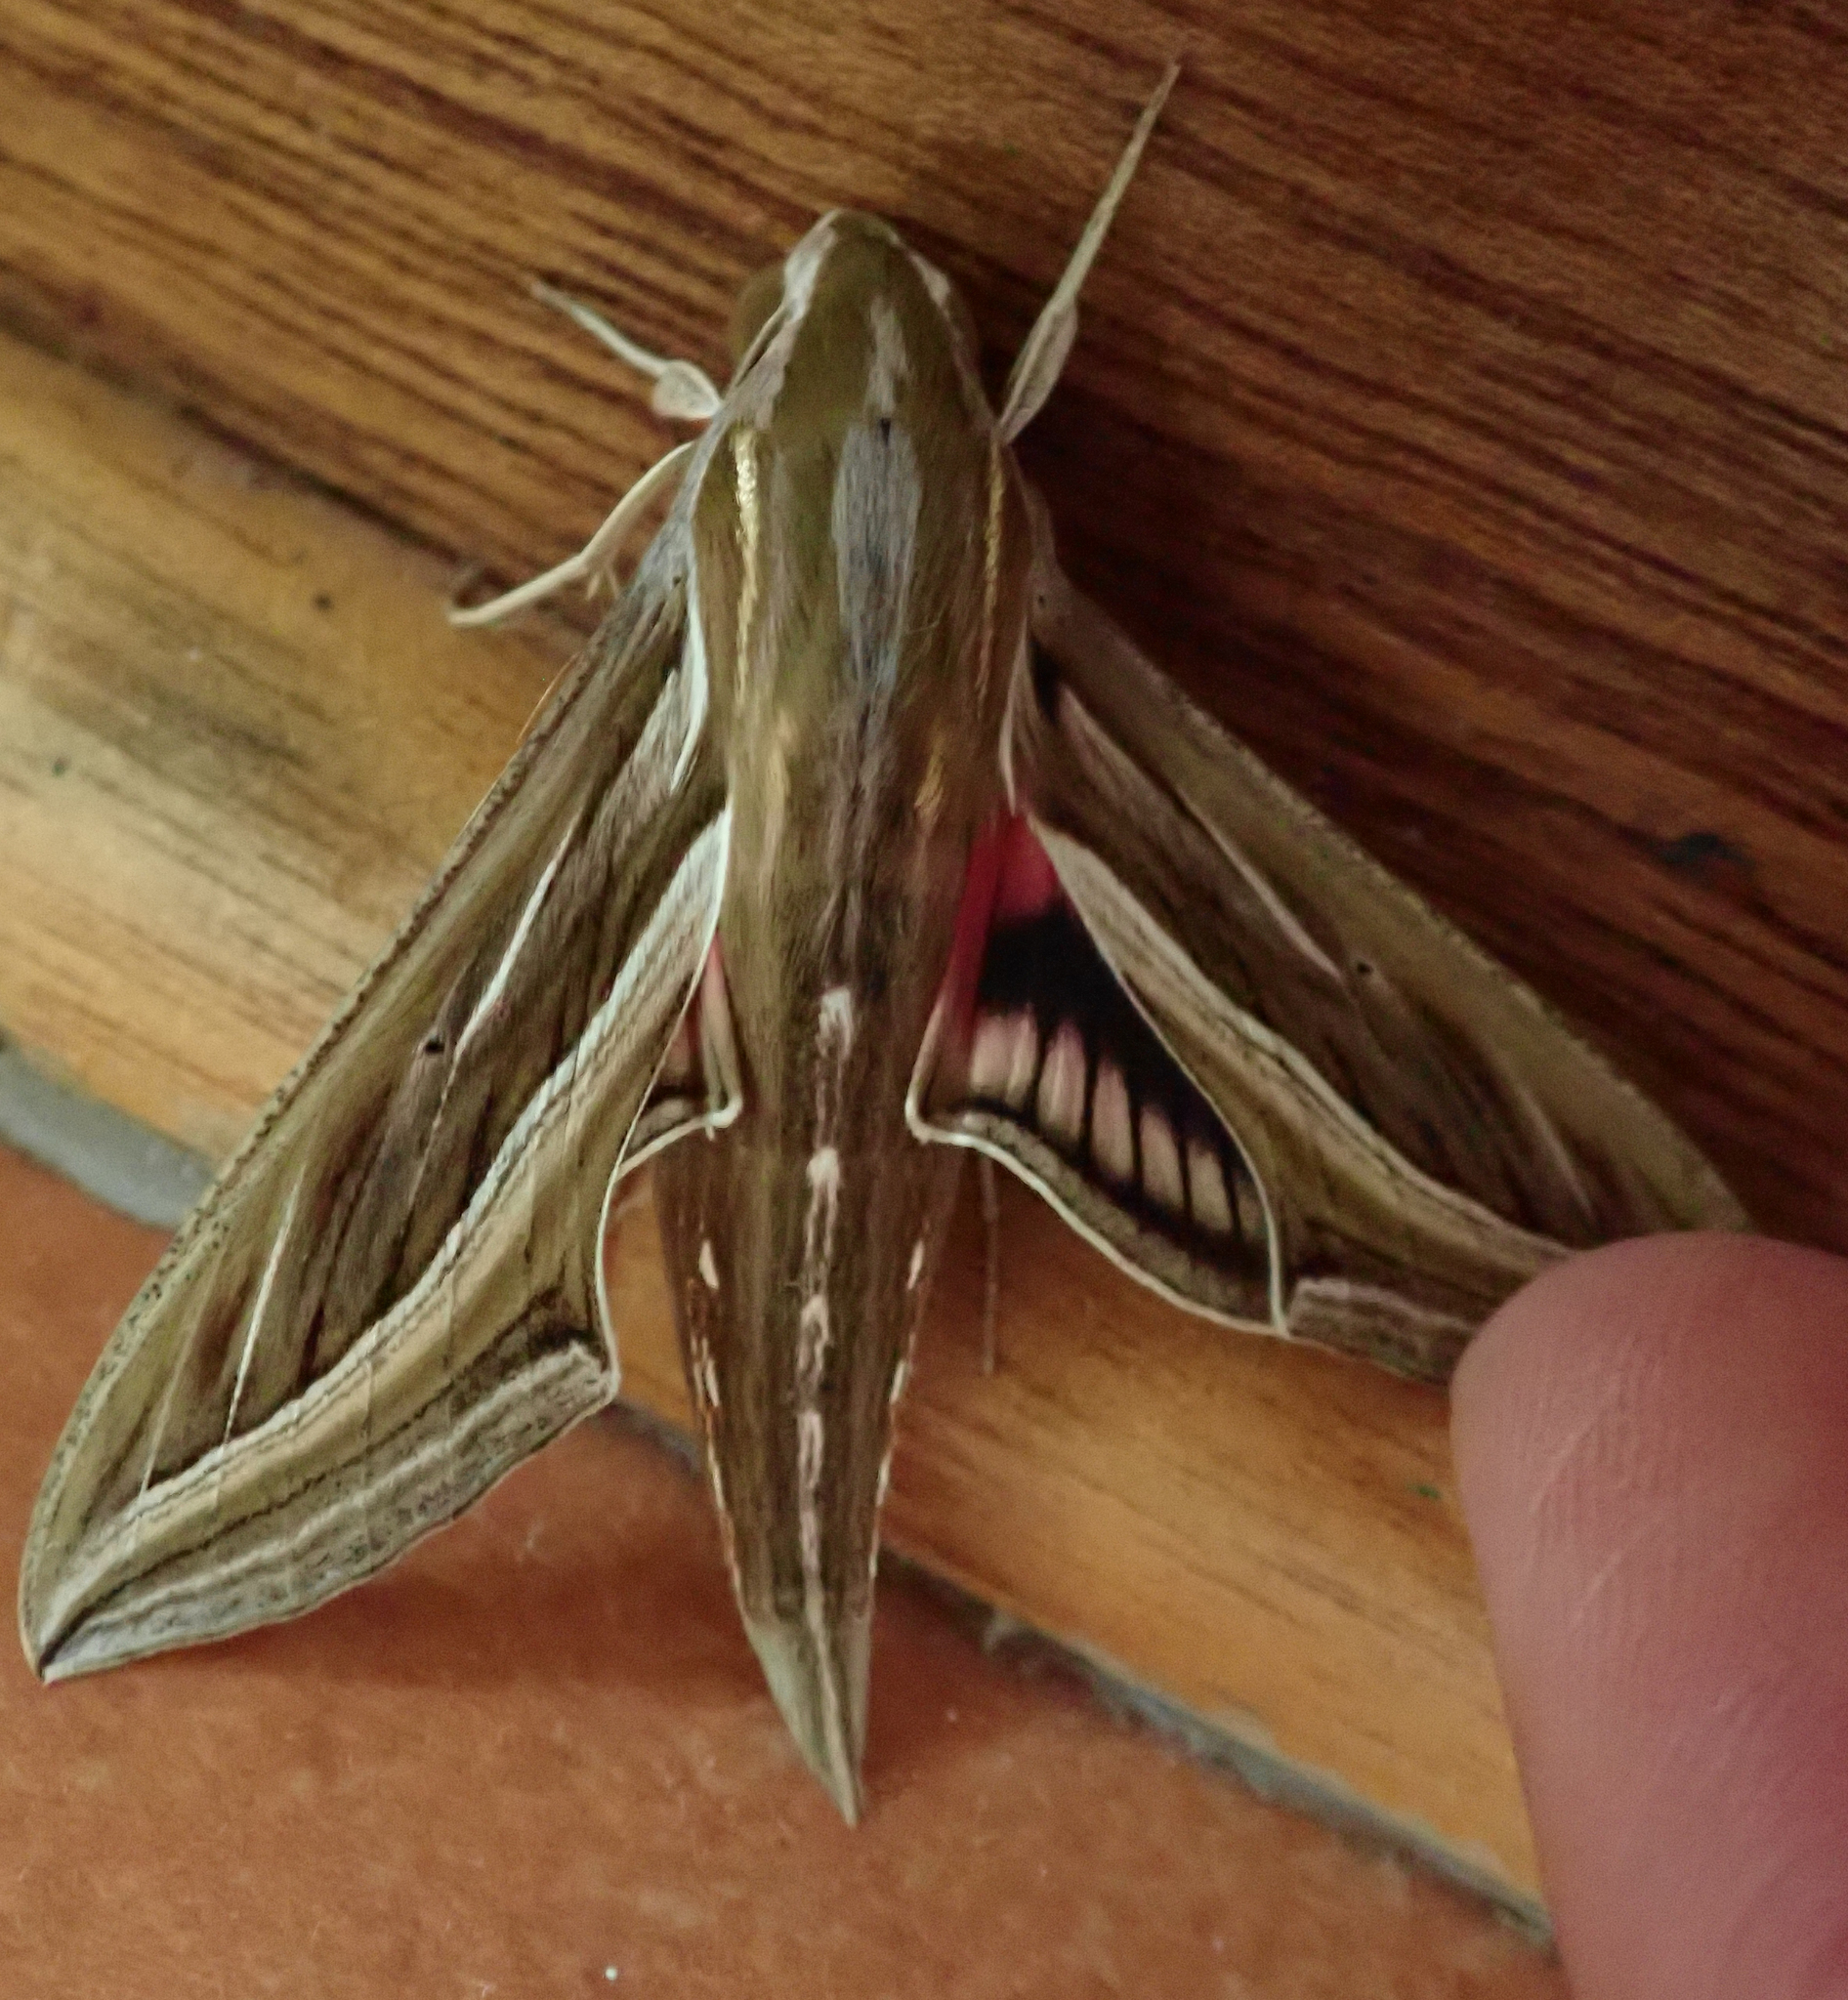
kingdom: Animalia
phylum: Arthropoda
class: Insecta
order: Lepidoptera
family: Sphingidae
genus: Hippotion
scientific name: Hippotion celerio
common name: Silver-striped hawk-moth
